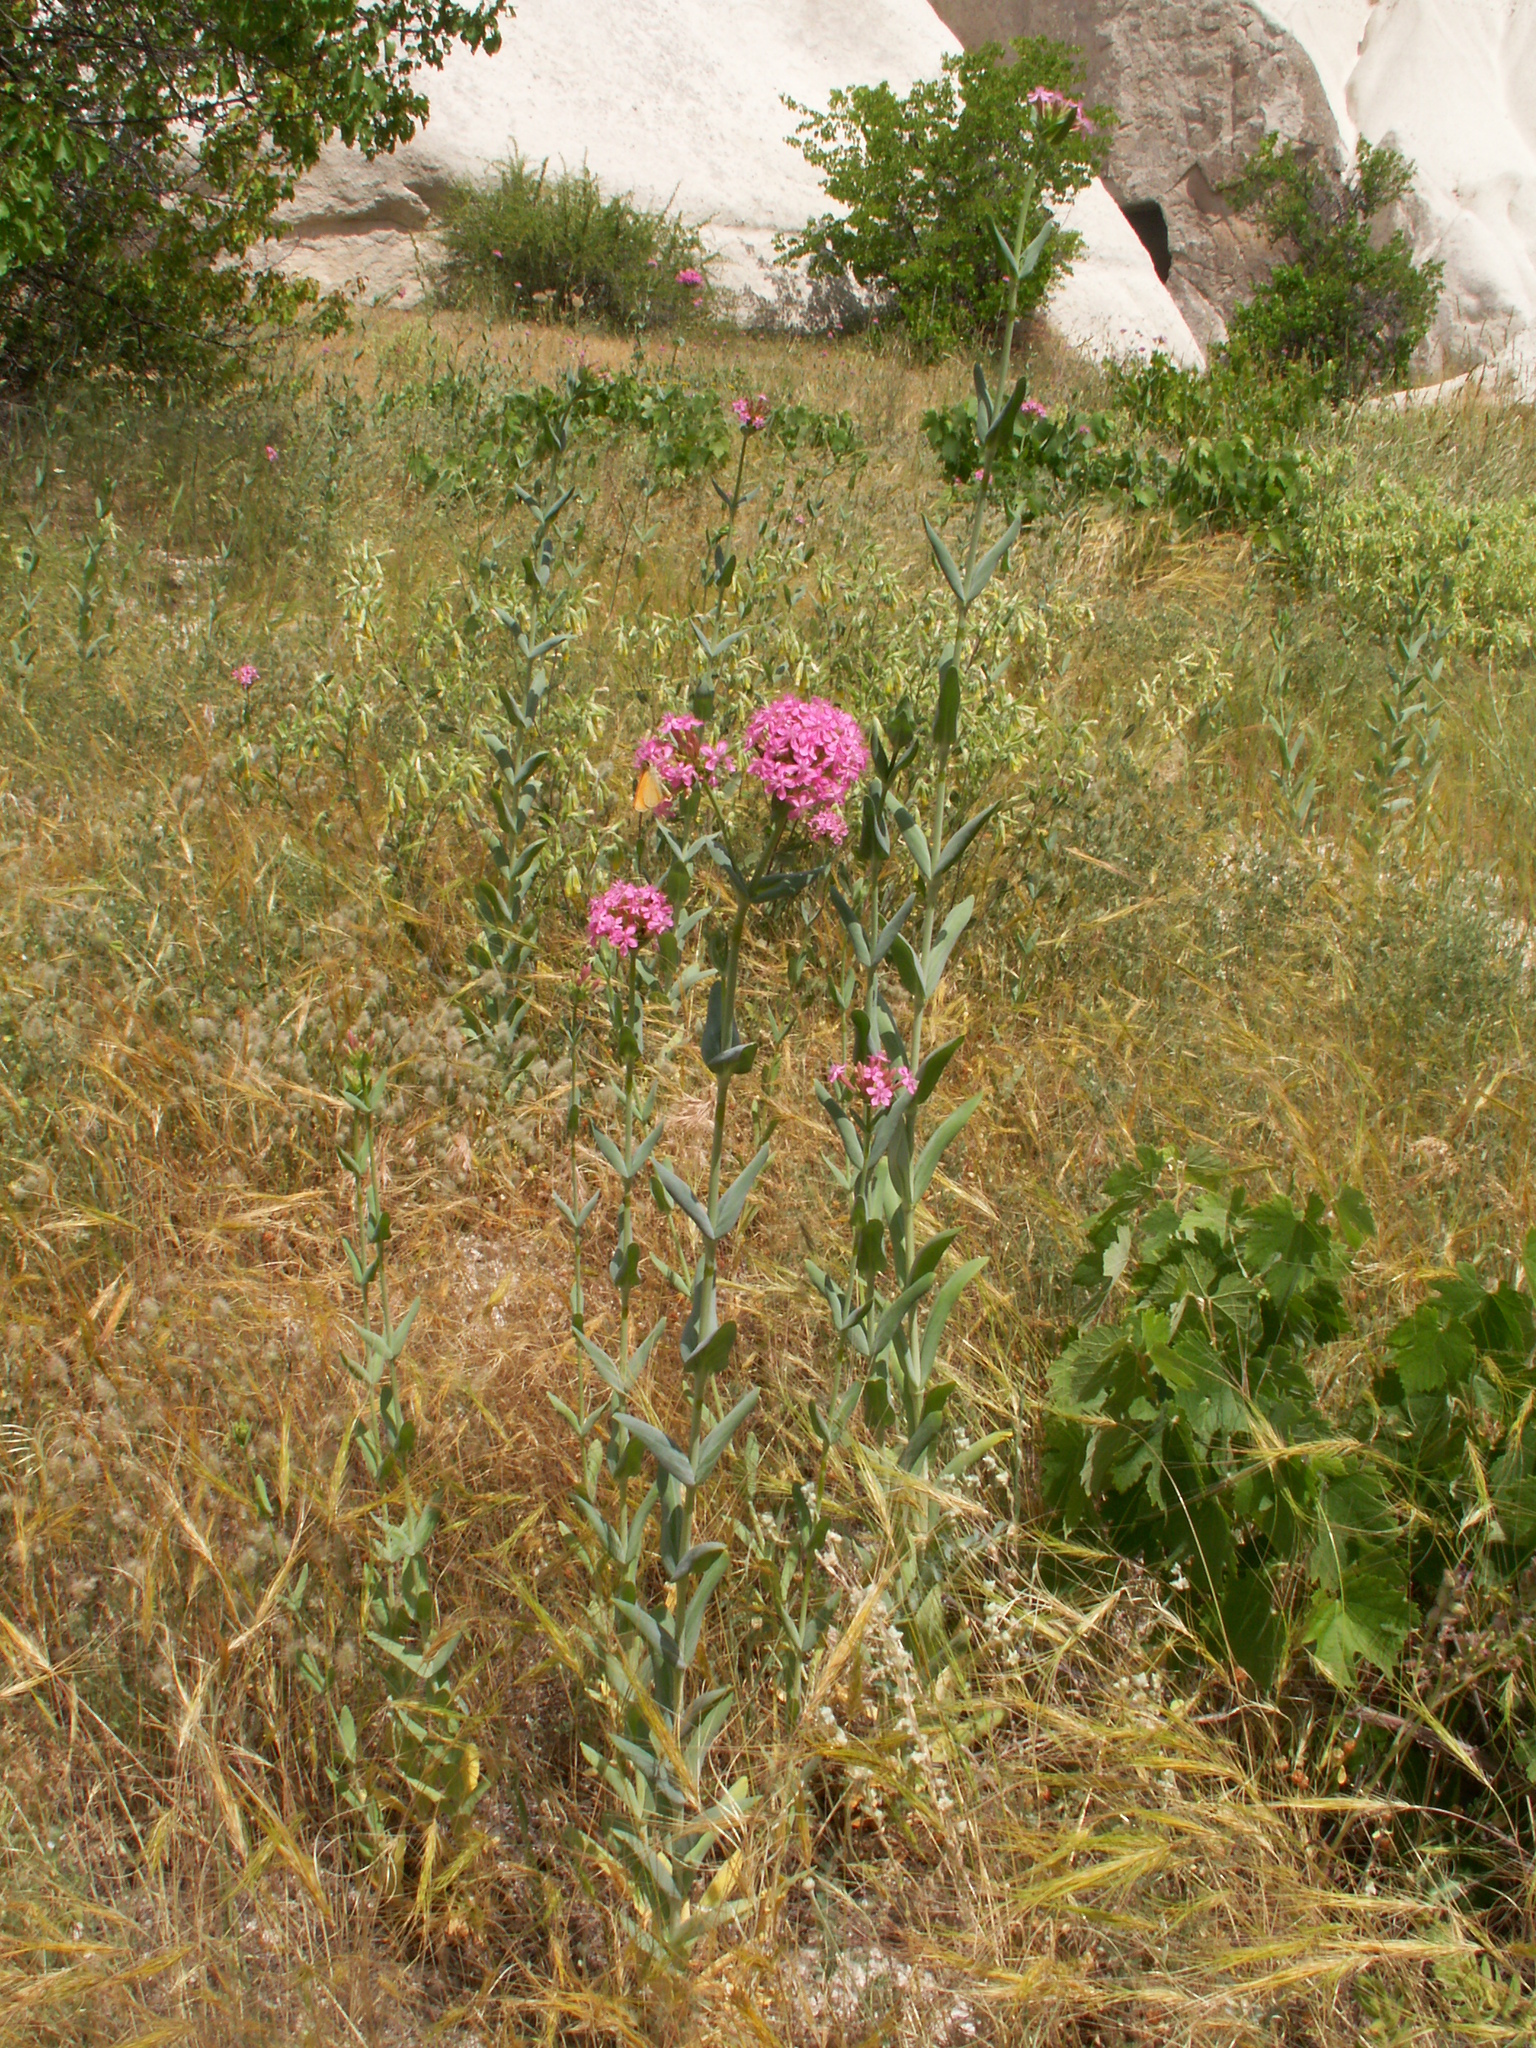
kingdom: Plantae
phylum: Tracheophyta
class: Magnoliopsida
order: Caryophyllales
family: Caryophyllaceae
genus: Atocion
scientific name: Atocion compactum
